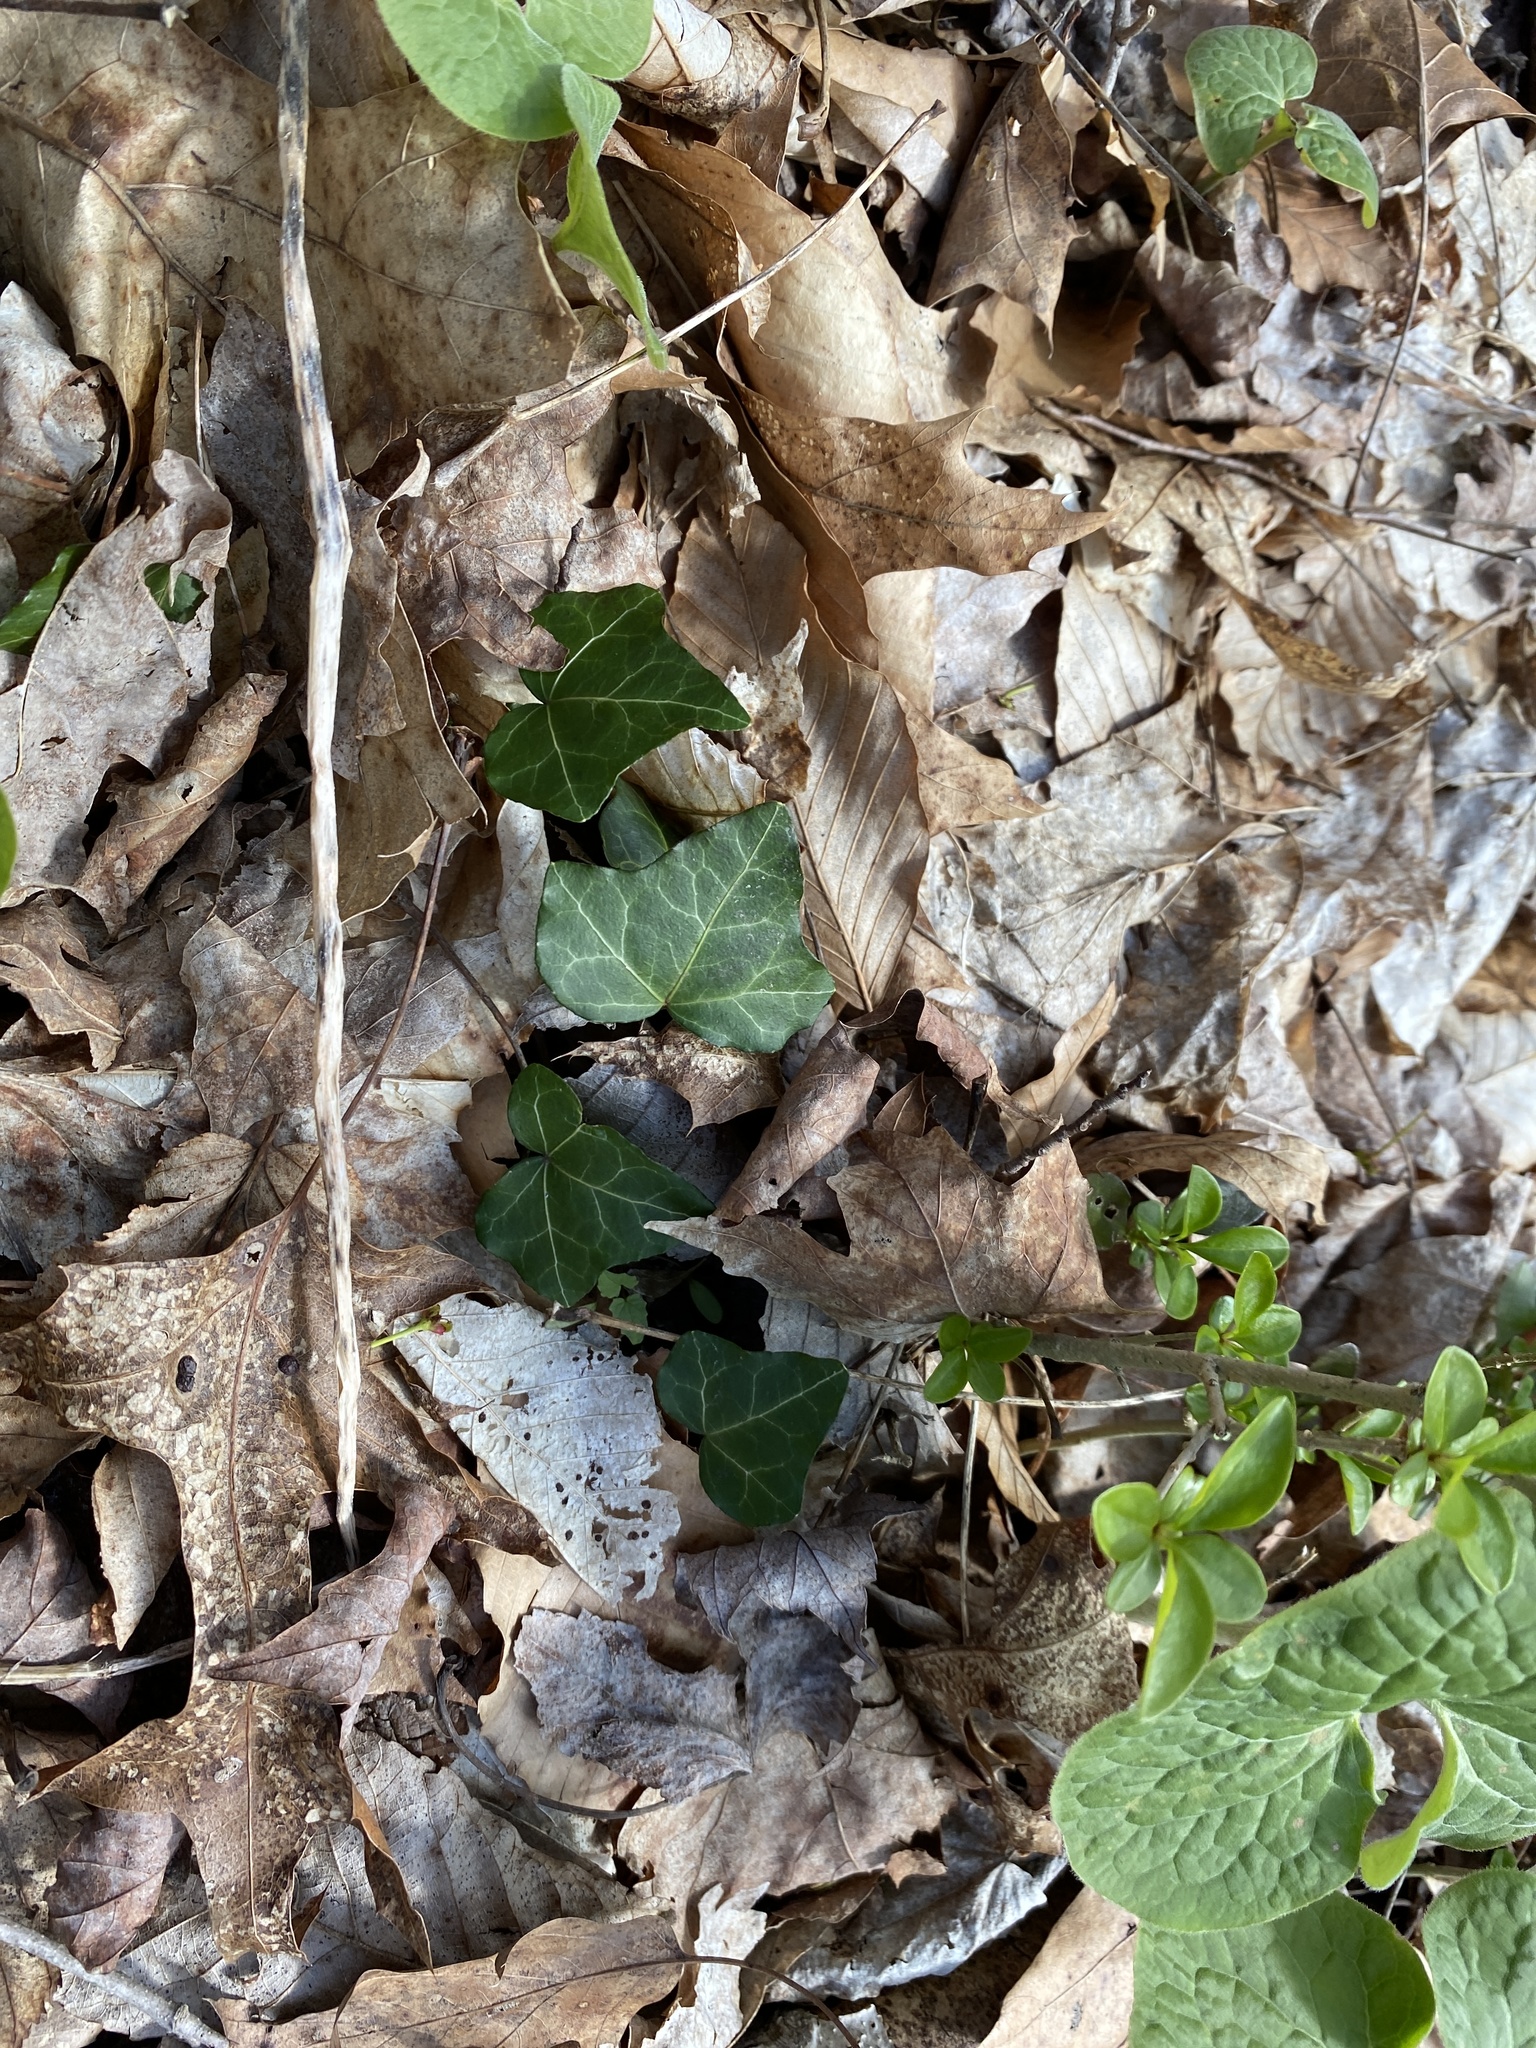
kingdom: Plantae
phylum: Tracheophyta
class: Magnoliopsida
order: Apiales
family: Araliaceae
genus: Hedera
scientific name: Hedera helix
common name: Ivy
